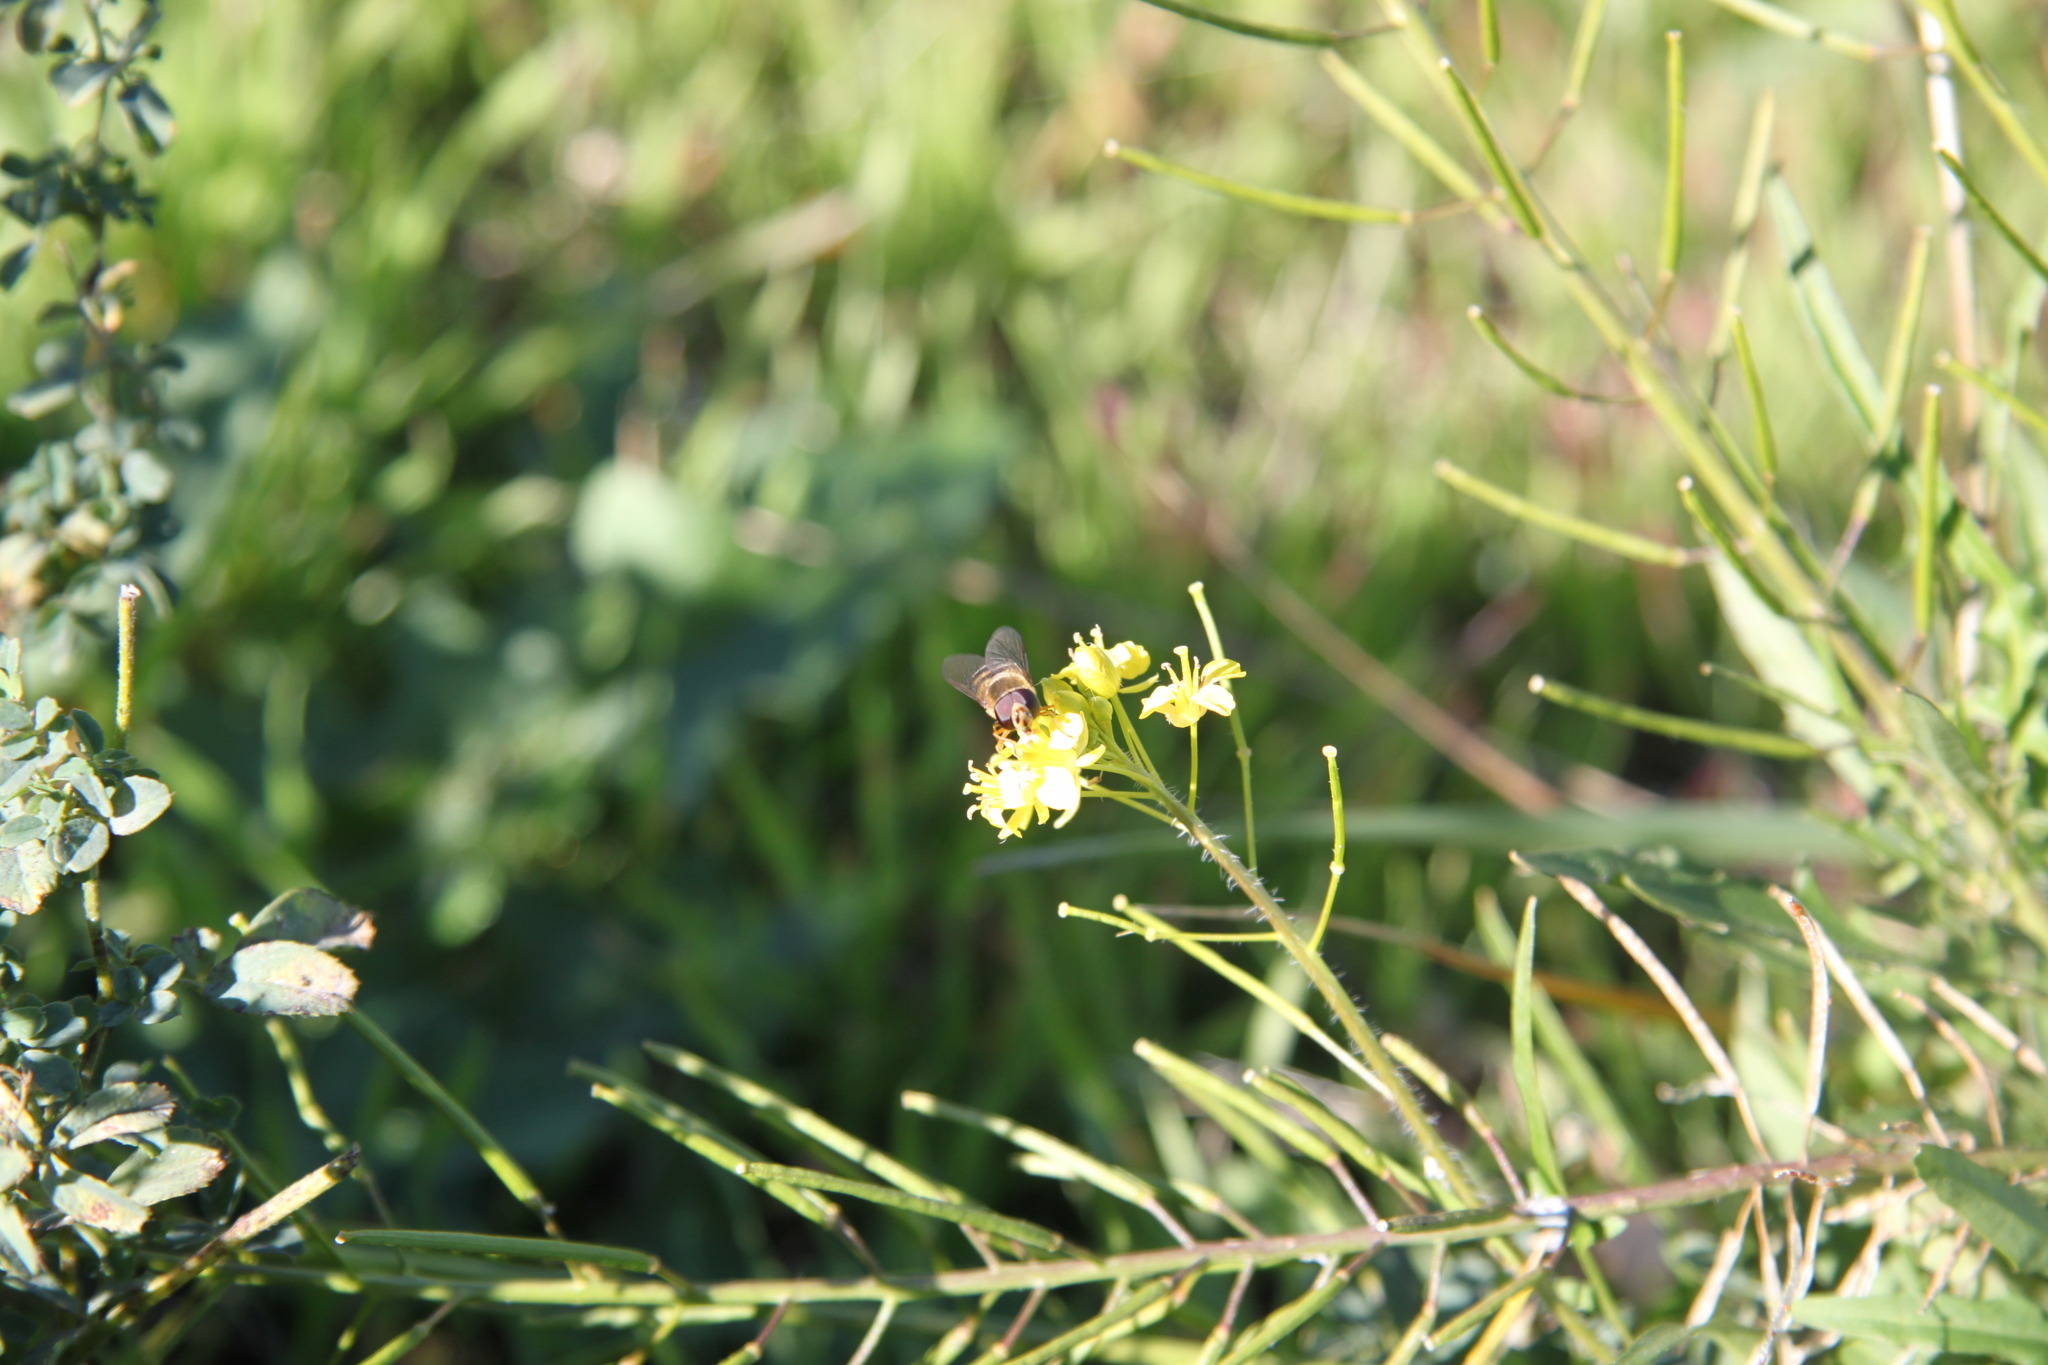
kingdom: Animalia
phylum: Arthropoda
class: Insecta
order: Diptera
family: Syrphidae
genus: Eupeodes
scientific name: Eupeodes fumipennis
